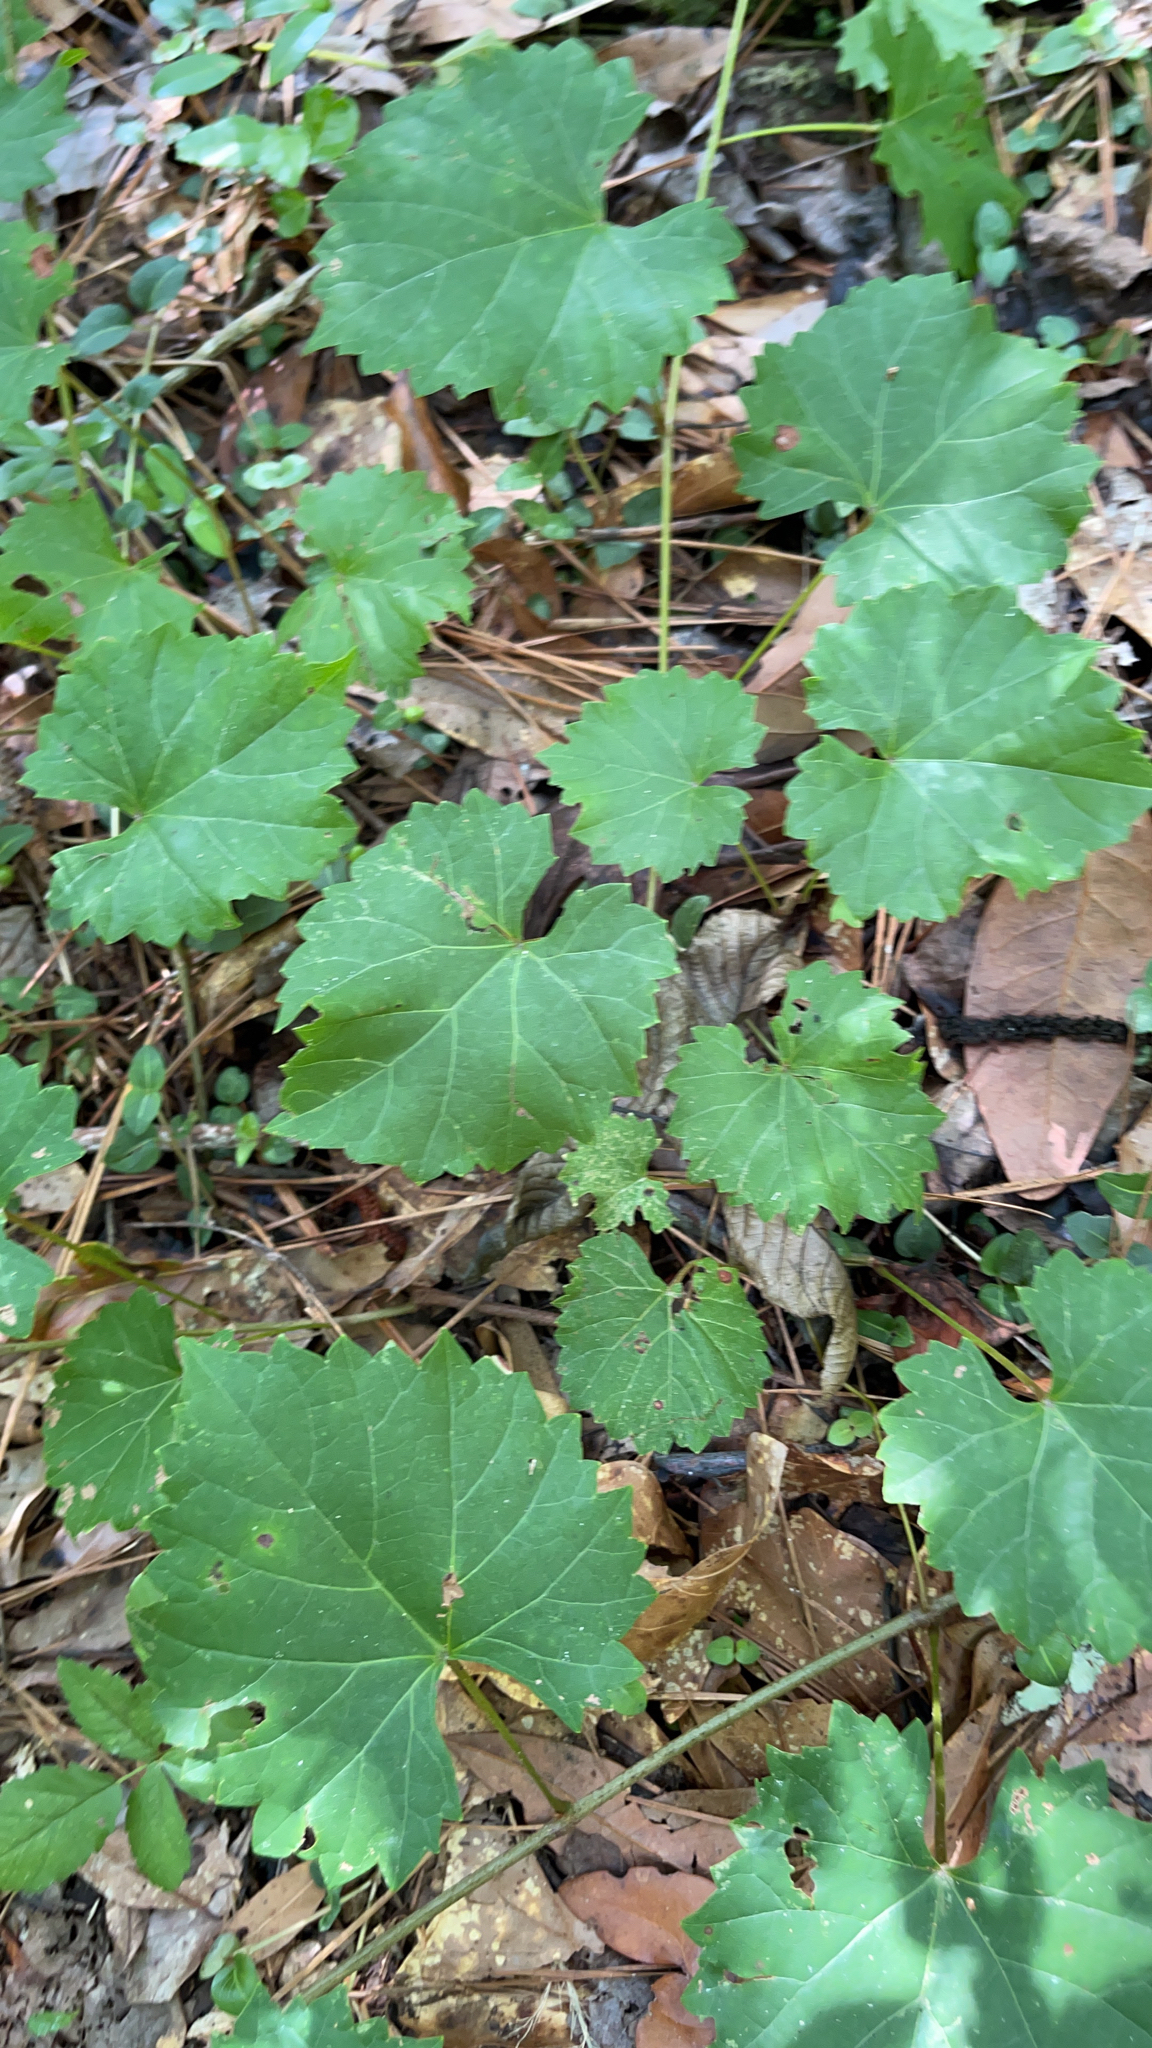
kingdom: Plantae
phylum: Tracheophyta
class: Magnoliopsida
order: Vitales
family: Vitaceae
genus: Vitis
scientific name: Vitis rotundifolia
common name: Muscadine grape
